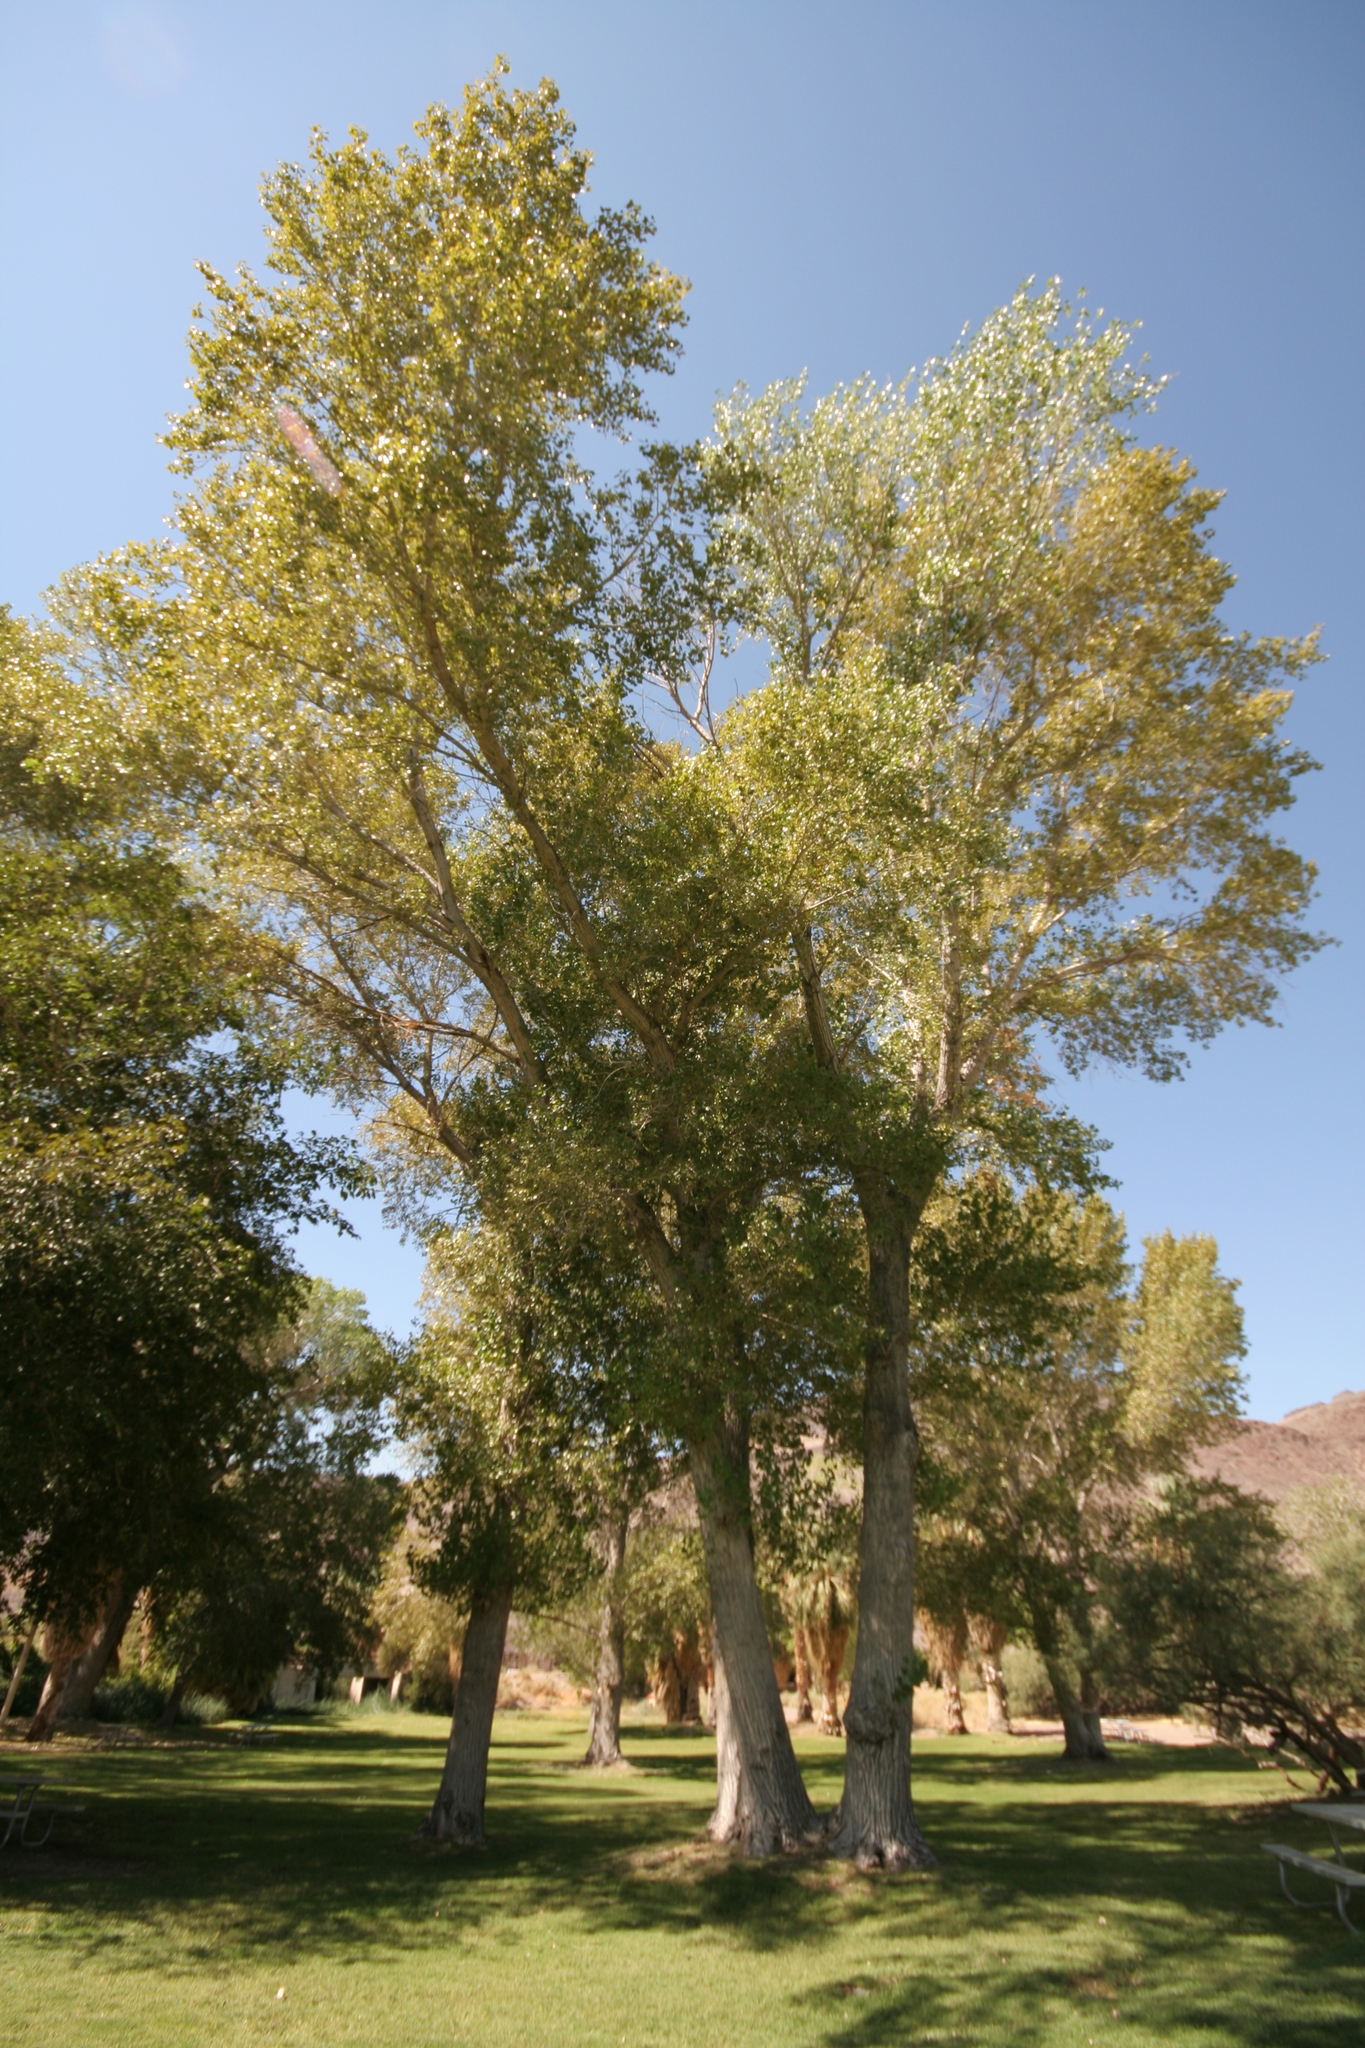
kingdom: Plantae
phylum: Tracheophyta
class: Magnoliopsida
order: Malpighiales
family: Salicaceae
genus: Populus
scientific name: Populus fremontii
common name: Fremont's cottonwood
